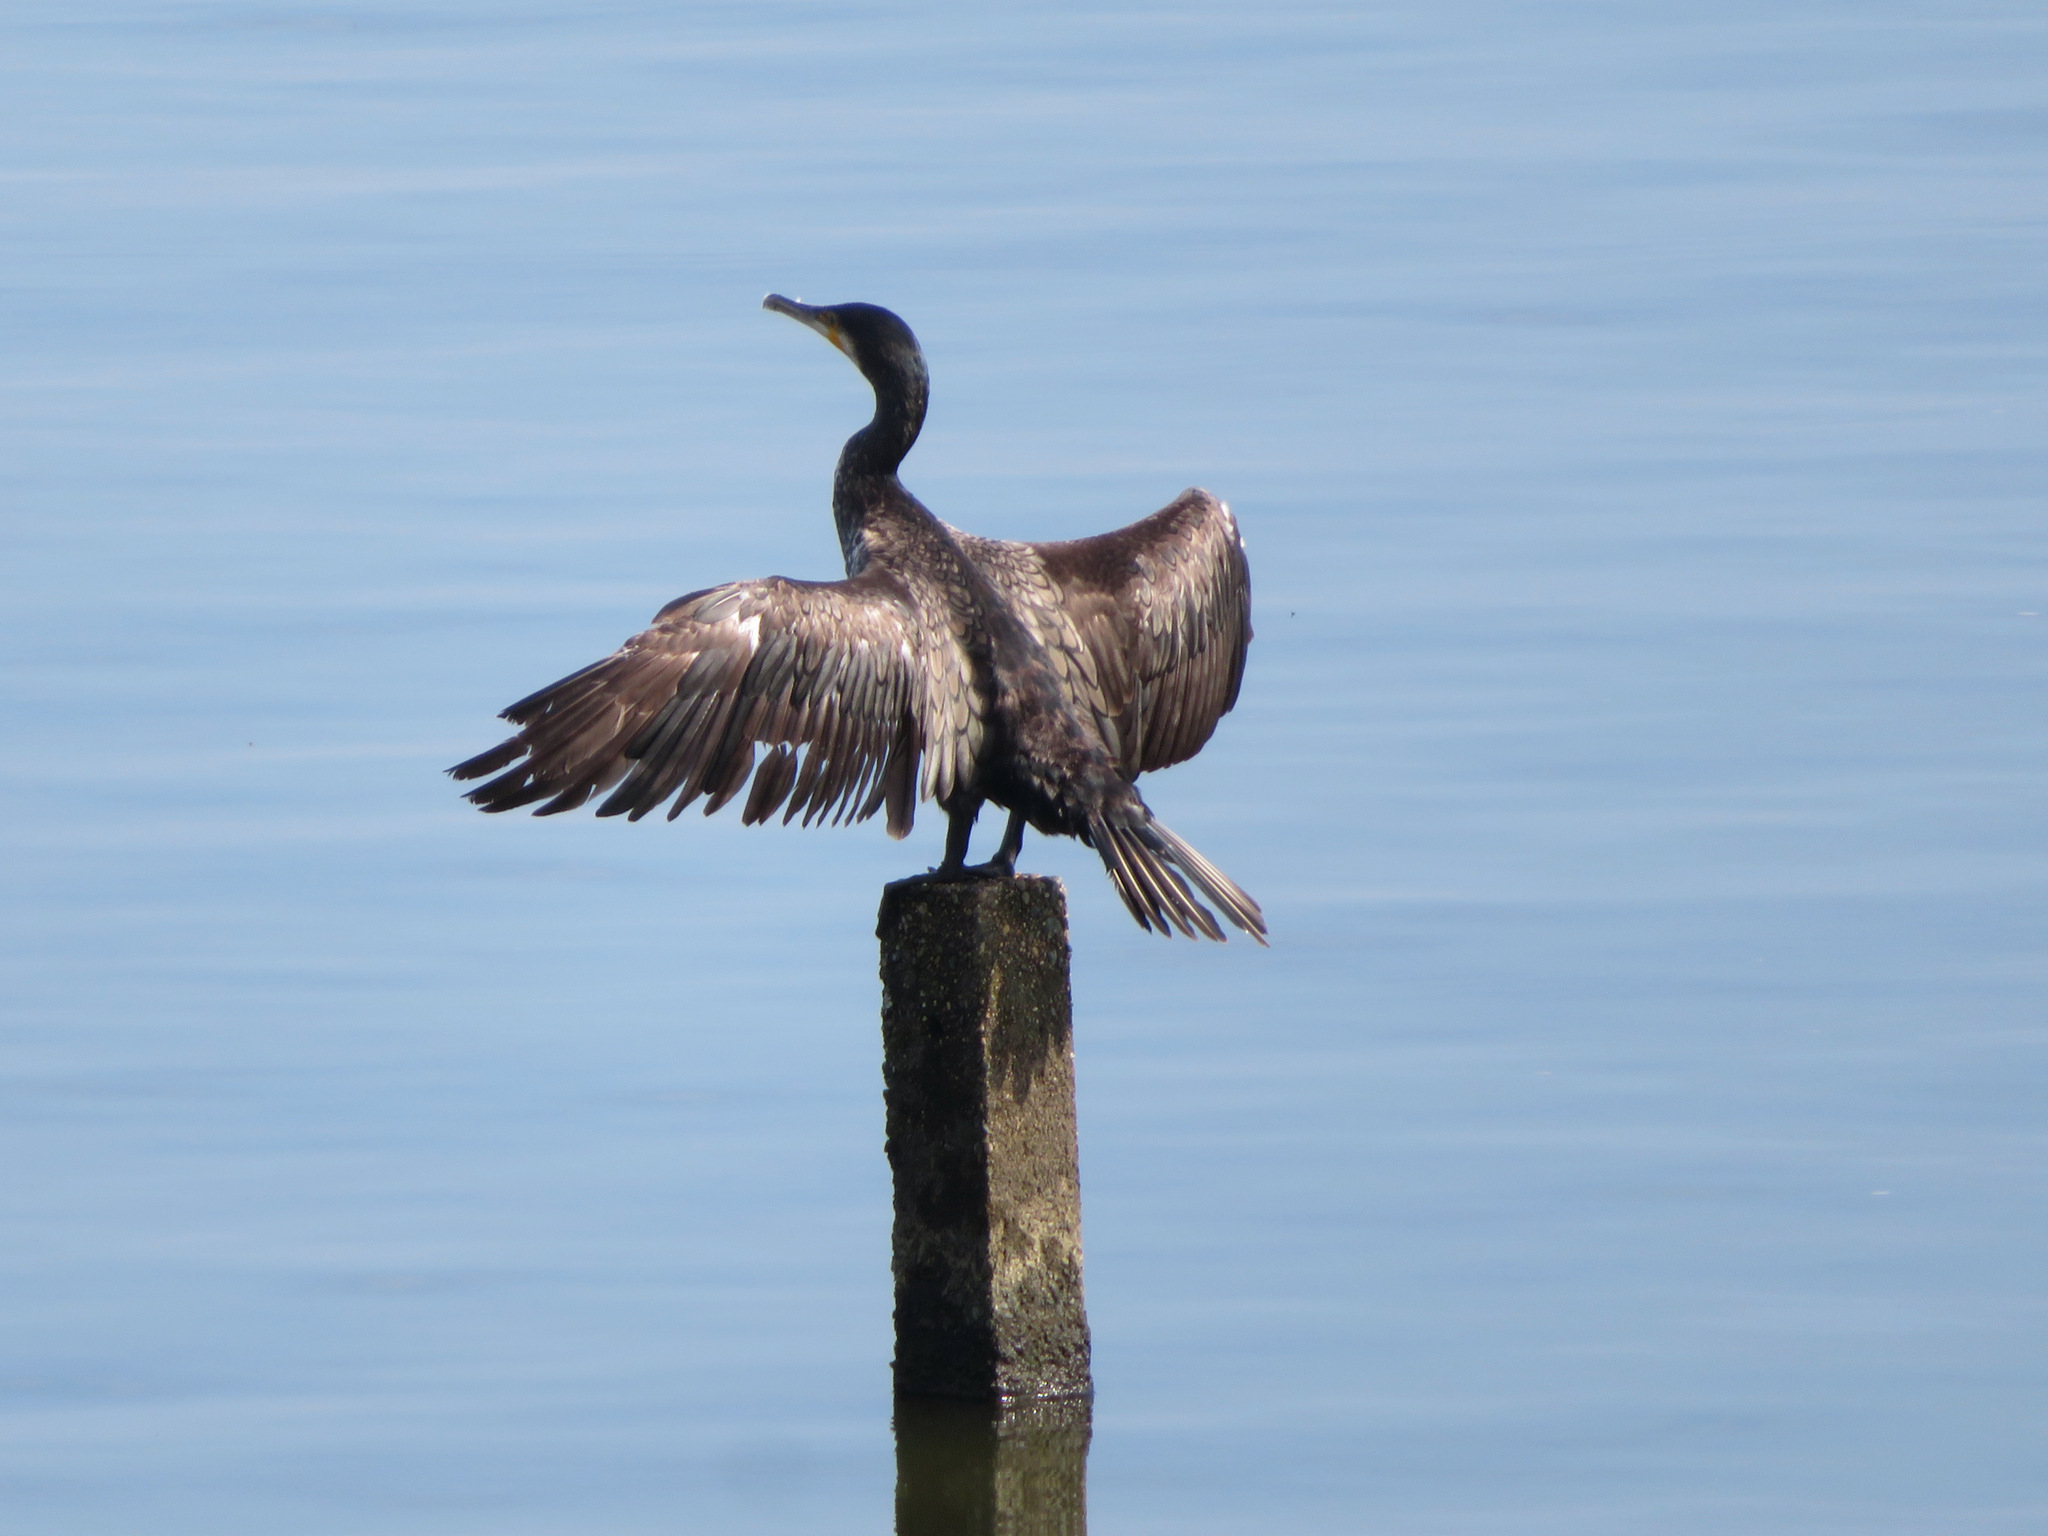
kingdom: Animalia
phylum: Chordata
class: Aves
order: Suliformes
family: Phalacrocoracidae
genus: Phalacrocorax
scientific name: Phalacrocorax carbo
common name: Great cormorant
